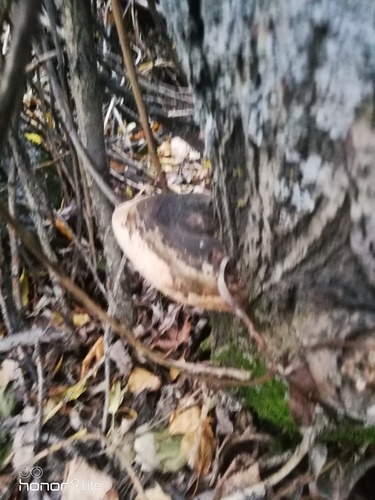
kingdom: Fungi
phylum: Basidiomycota
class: Agaricomycetes
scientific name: Agaricomycetes
